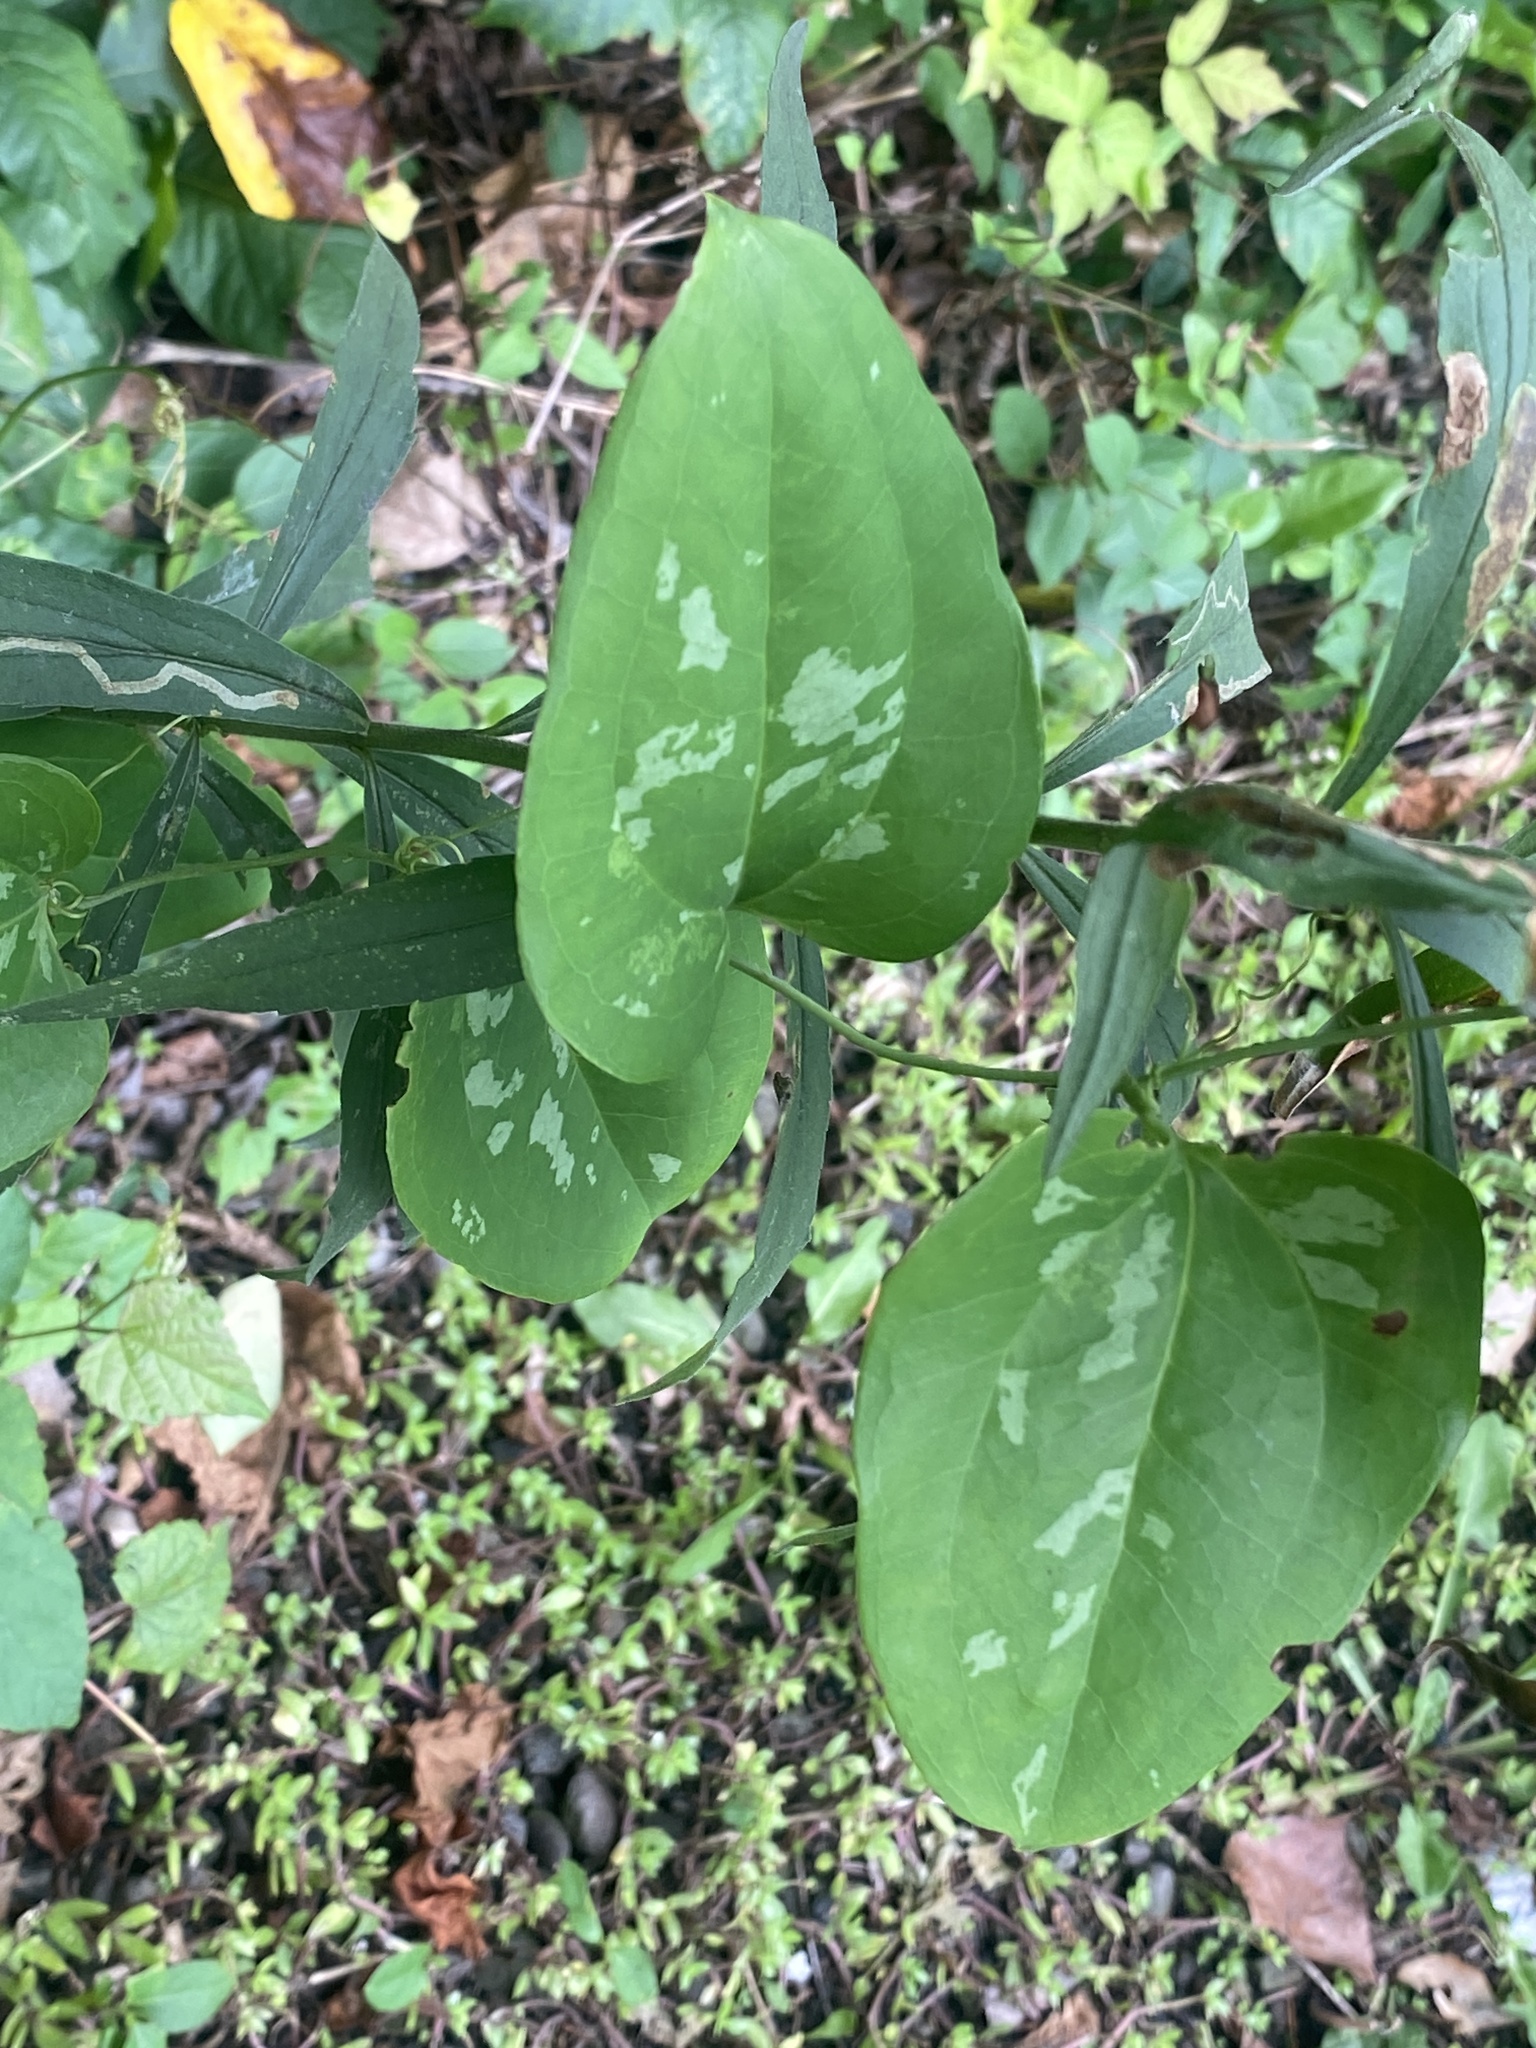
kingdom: Plantae
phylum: Tracheophyta
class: Liliopsida
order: Liliales
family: Smilacaceae
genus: Smilax
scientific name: Smilax glauca
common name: Cat greenbrier
